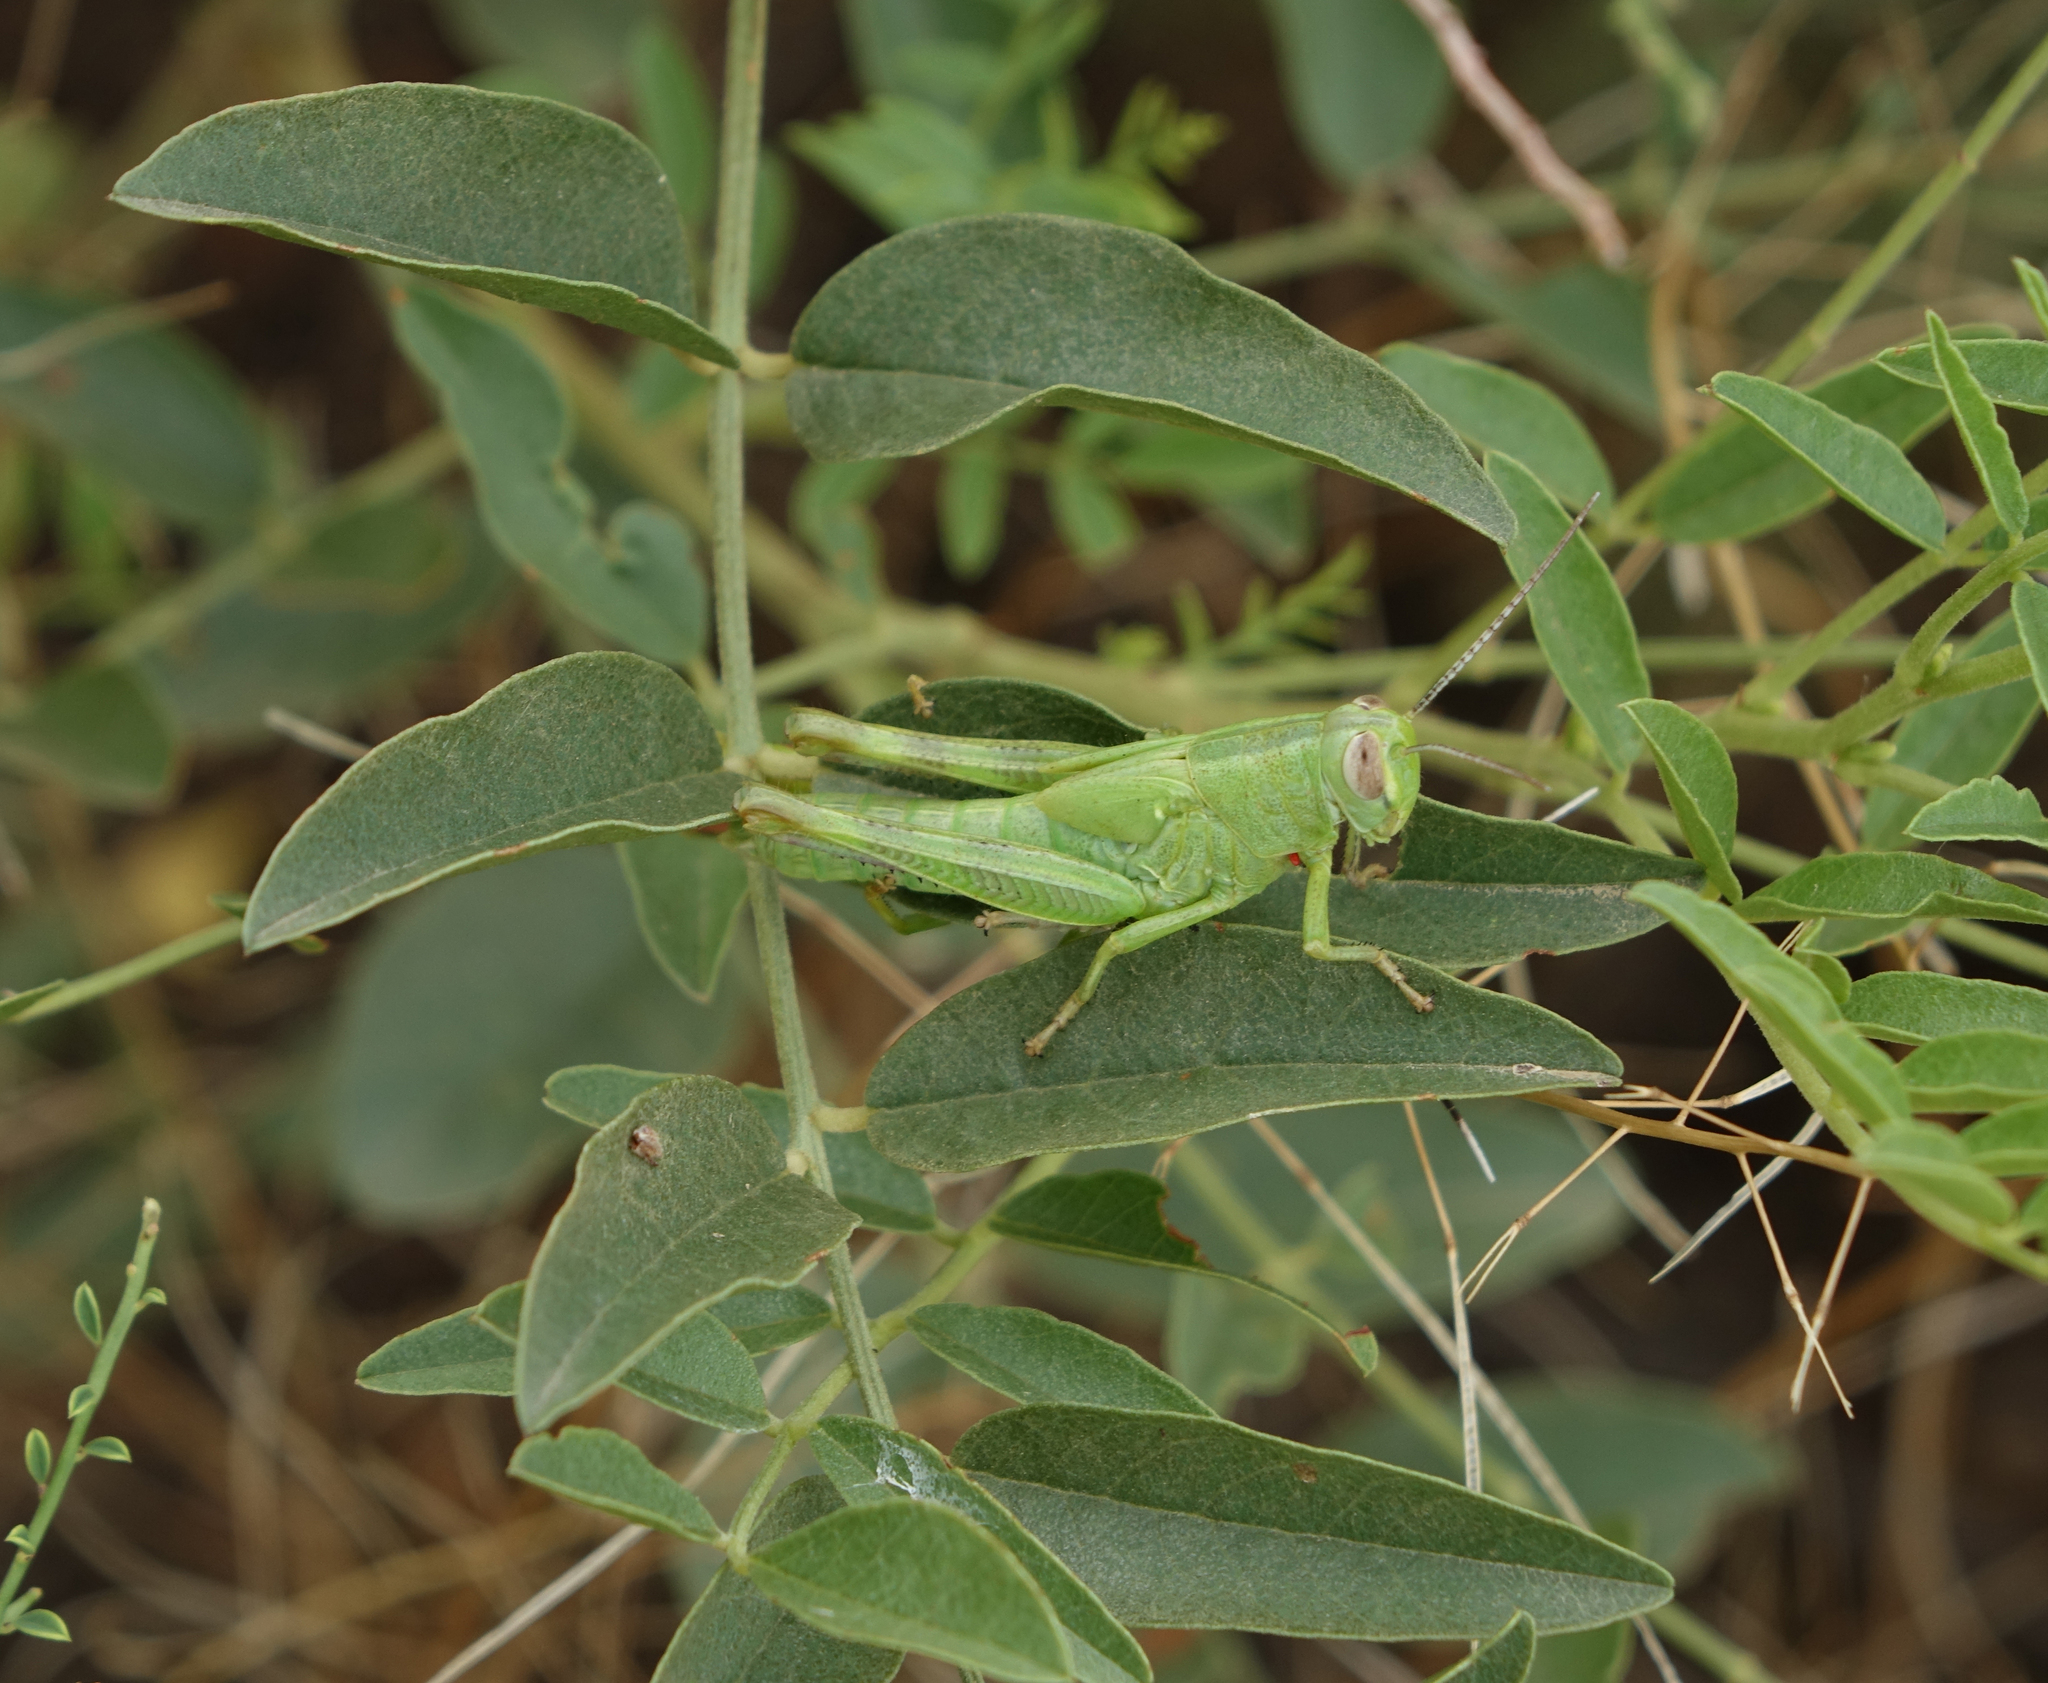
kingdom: Animalia
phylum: Arthropoda
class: Insecta
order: Orthoptera
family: Acrididae
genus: Heteracris
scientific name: Heteracris pterosticha
